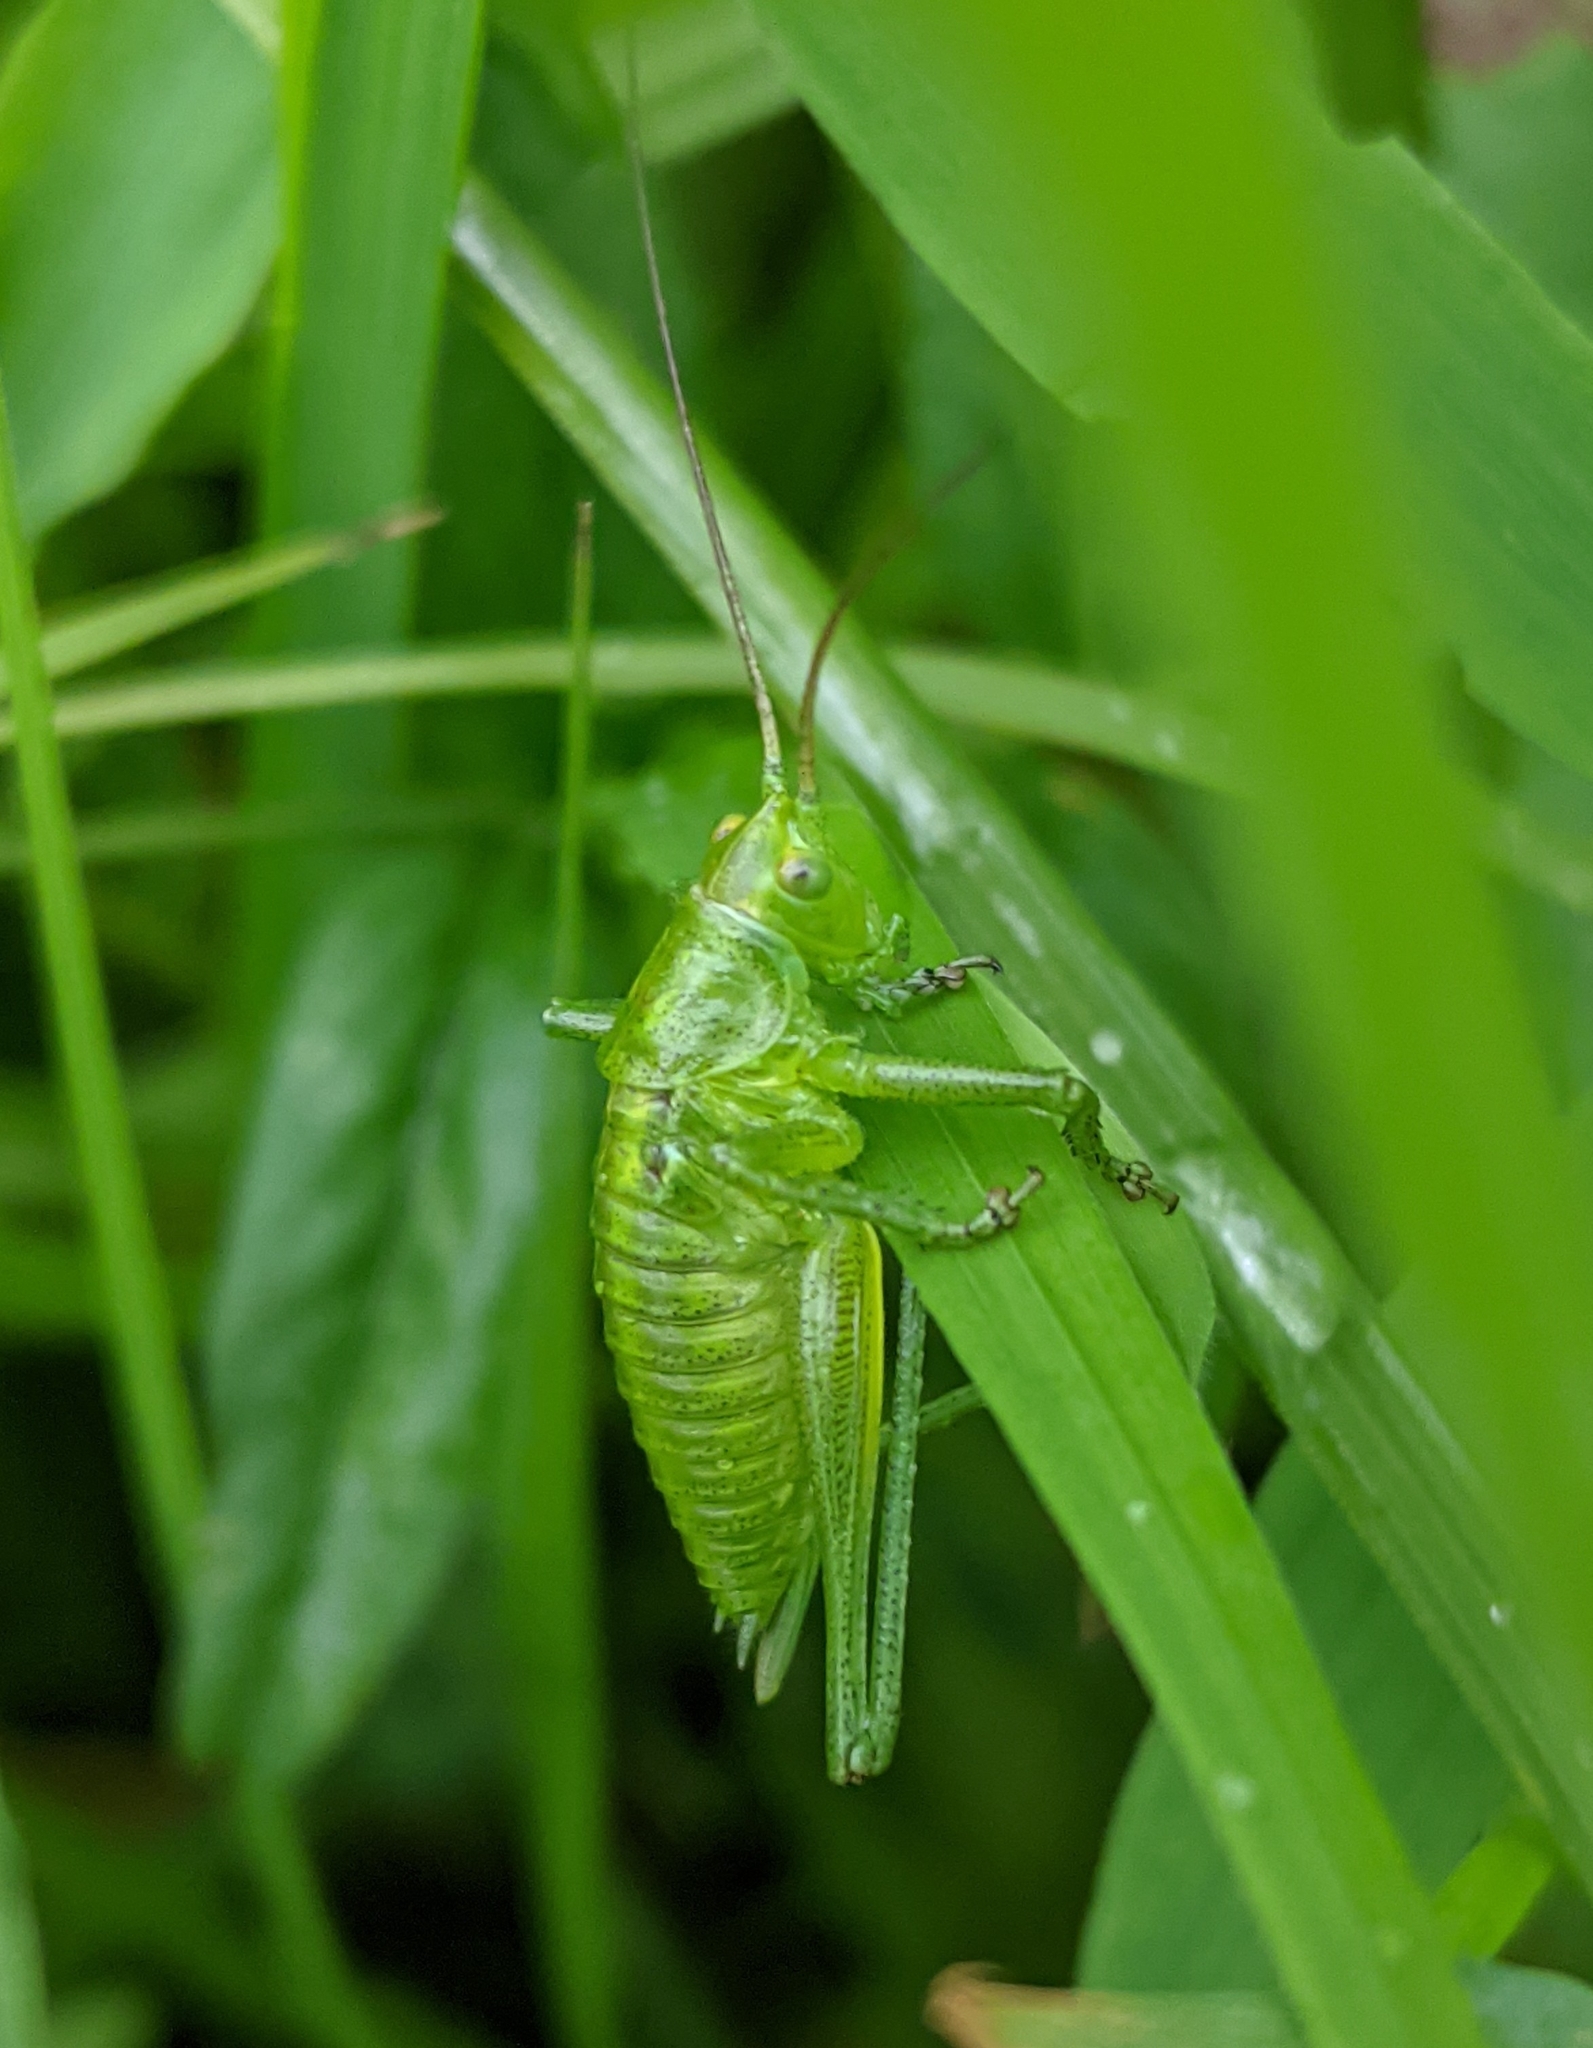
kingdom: Animalia
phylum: Arthropoda
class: Insecta
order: Orthoptera
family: Tettigoniidae
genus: Tettigonia
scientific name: Tettigonia cantans
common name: Upland green bush-cricket
